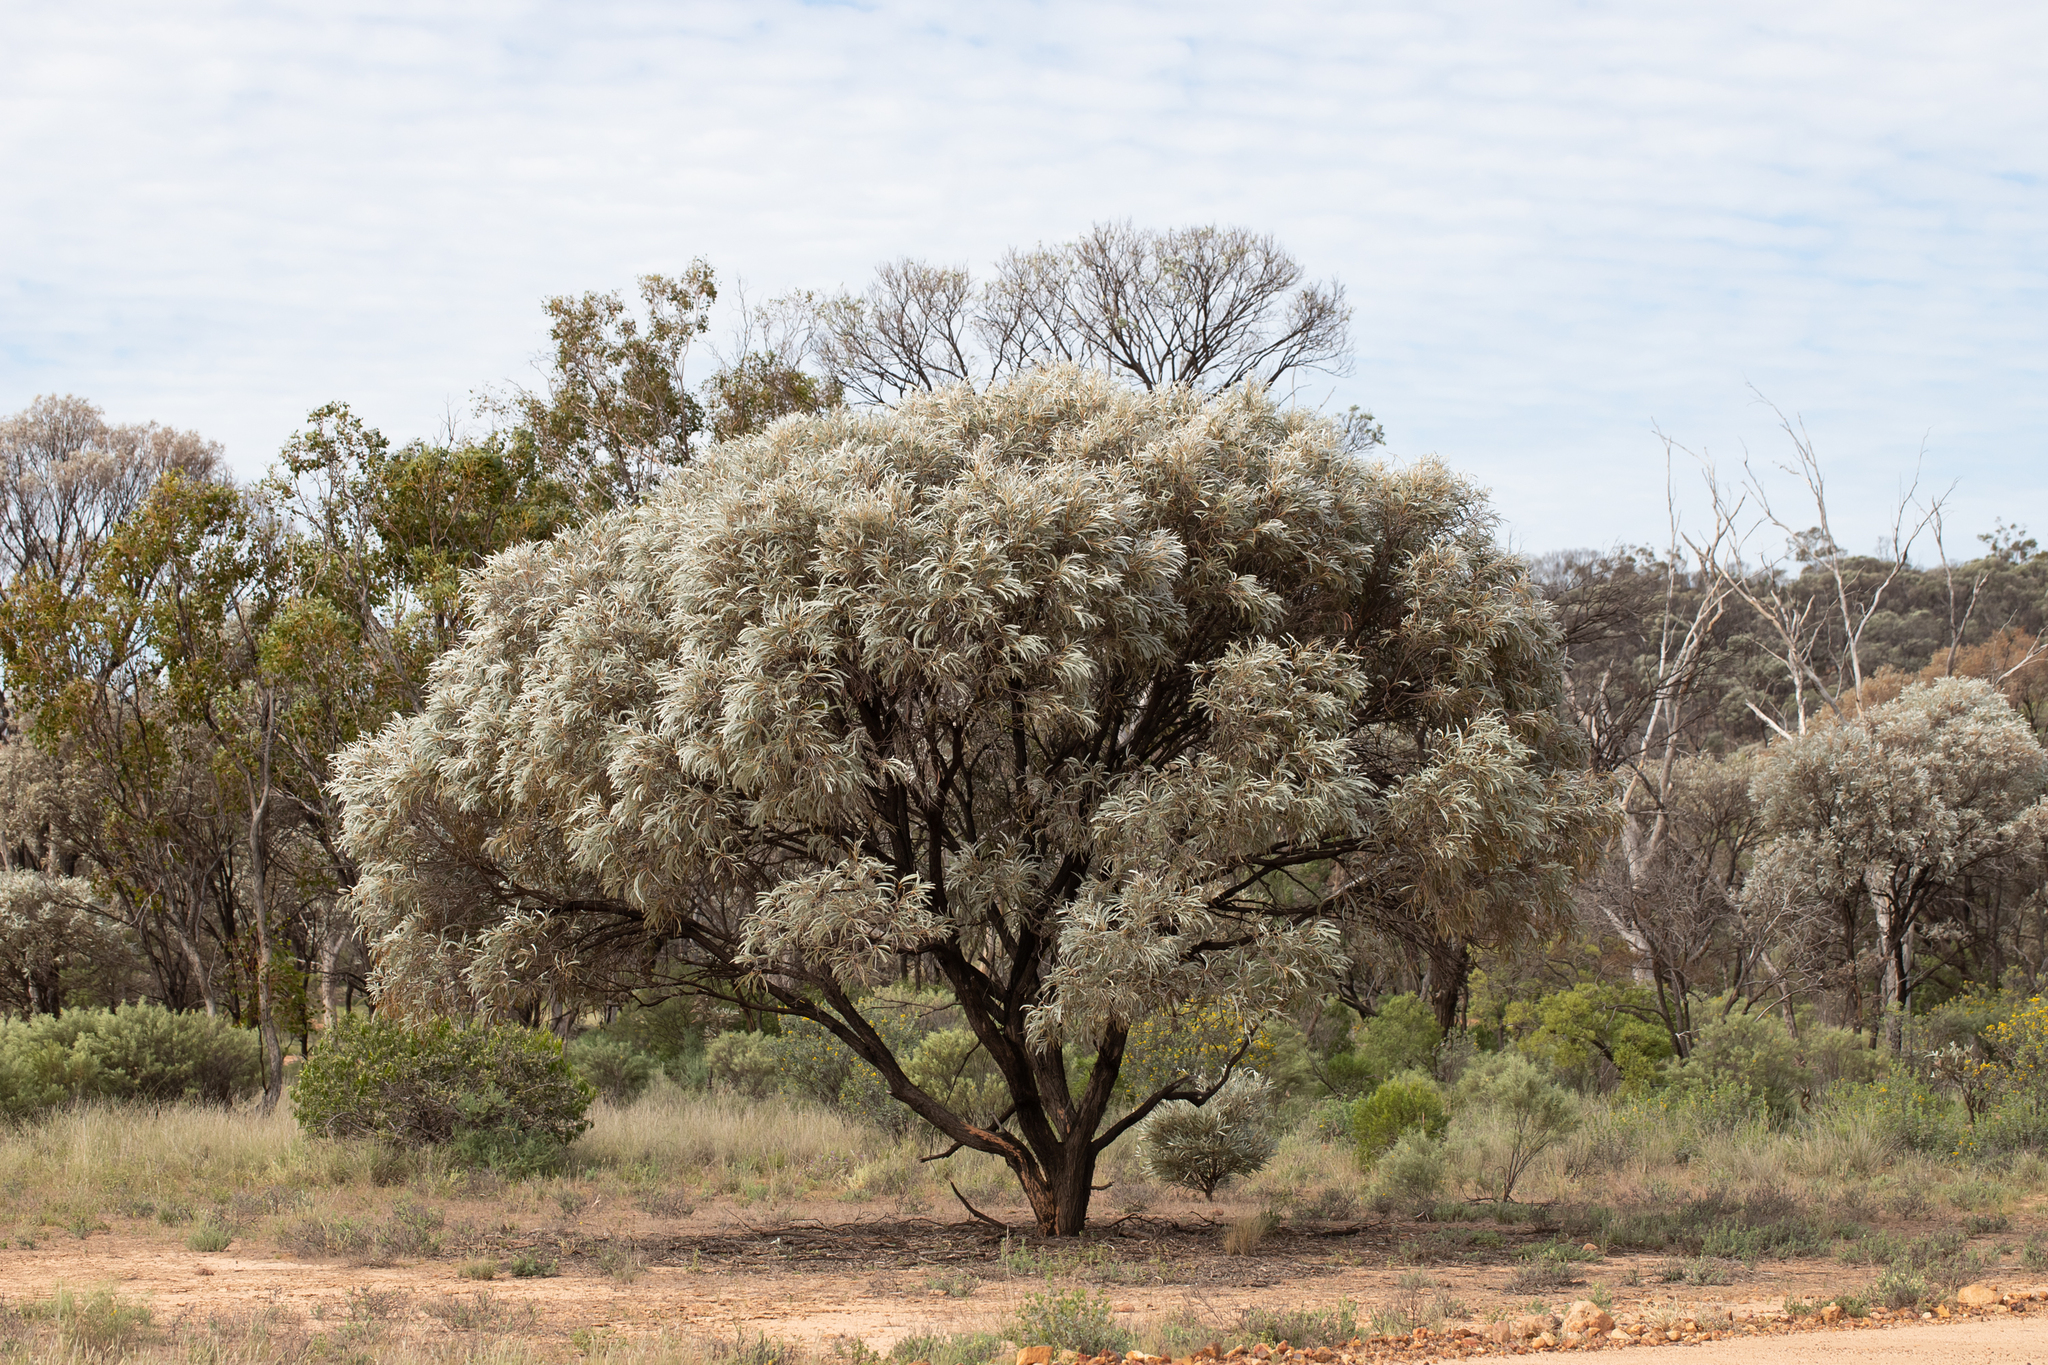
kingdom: Plantae
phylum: Tracheophyta
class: Magnoliopsida
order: Fabales
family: Fabaceae
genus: Acacia
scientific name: Acacia harpophylla
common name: Brigalow
